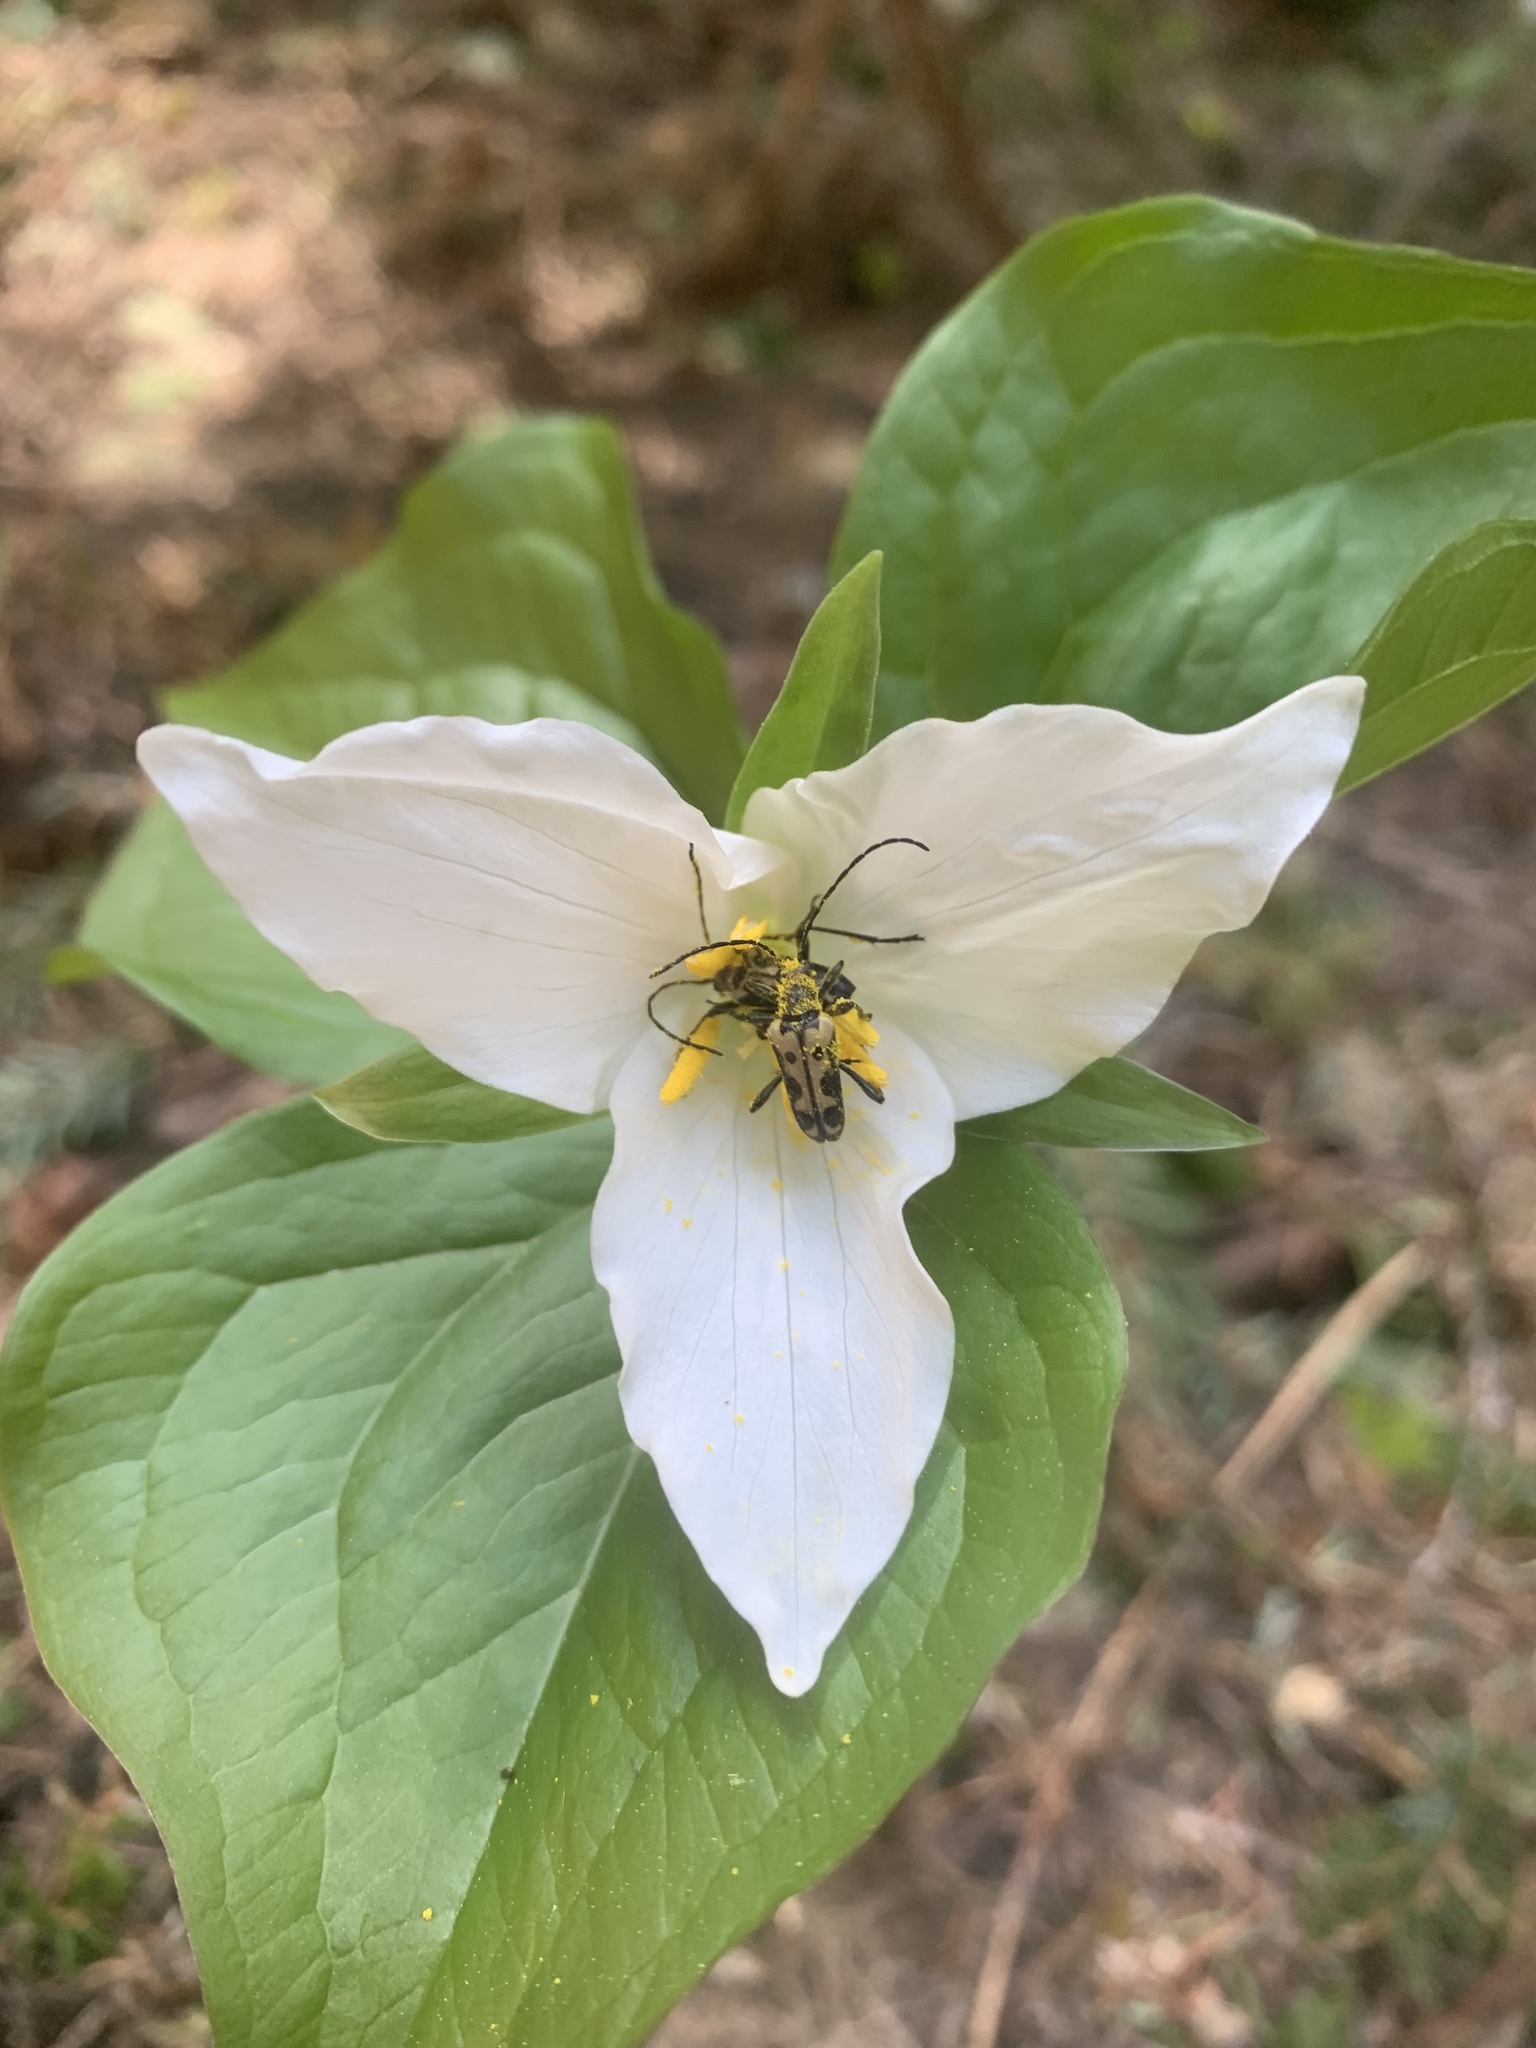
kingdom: Animalia
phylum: Arthropoda
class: Insecta
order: Coleoptera
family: Cerambycidae
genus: Evodinus
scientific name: Evodinus monticola
